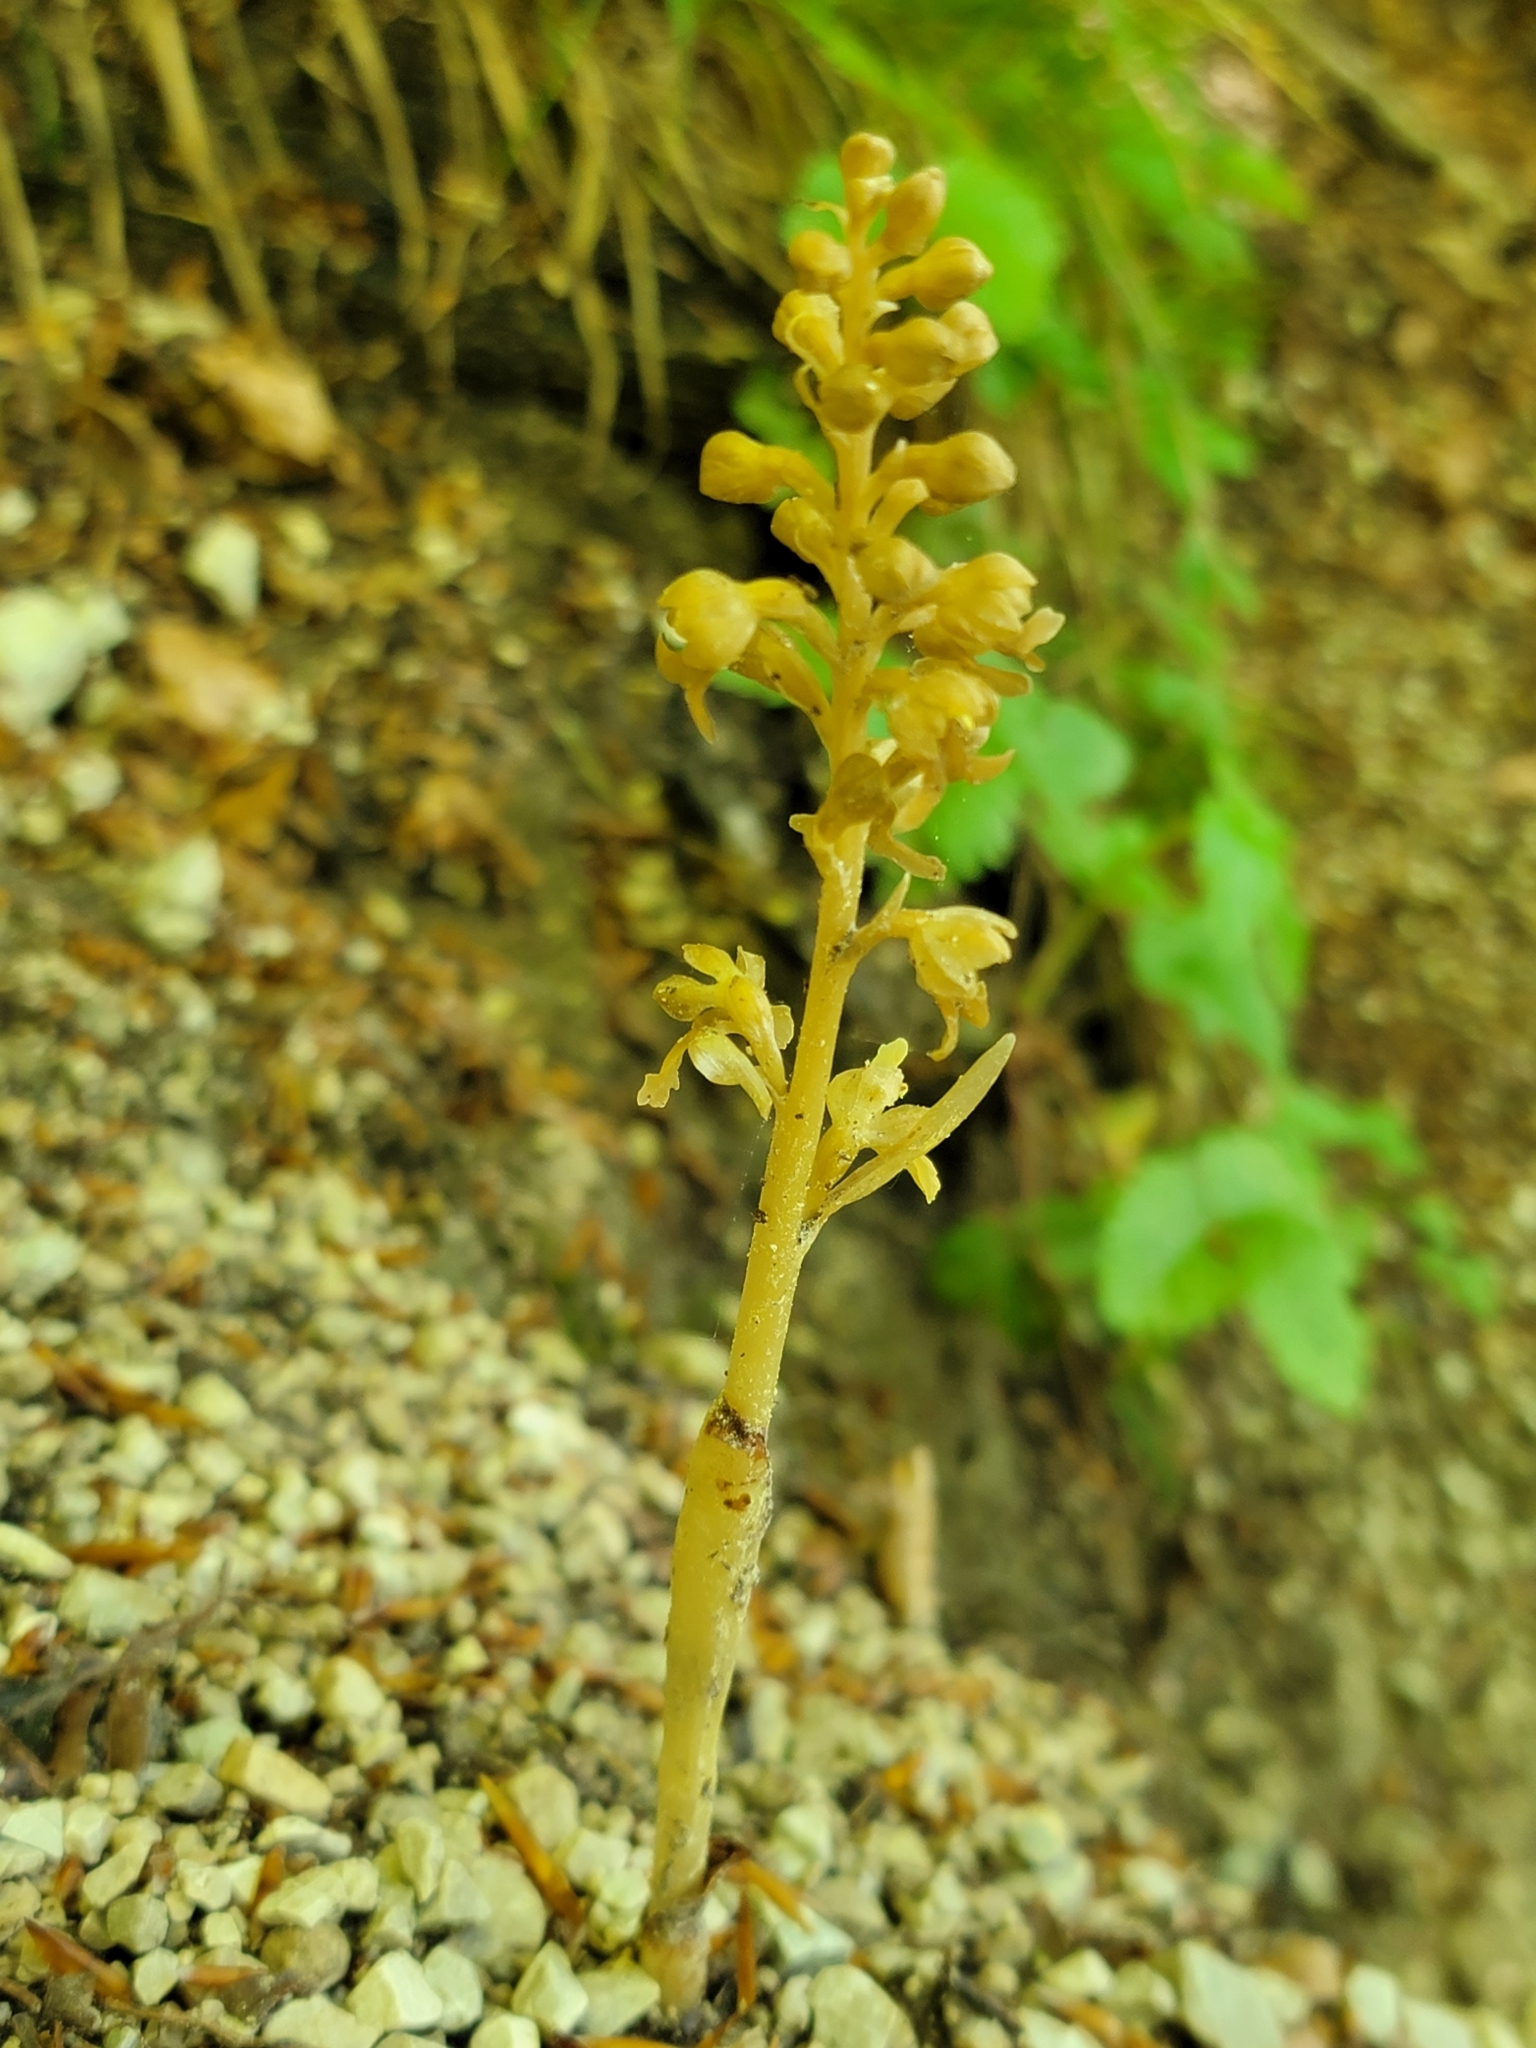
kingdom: Plantae
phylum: Tracheophyta
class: Liliopsida
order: Asparagales
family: Orchidaceae
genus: Neottia
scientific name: Neottia nidus-avis
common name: Bird's-nest orchid
